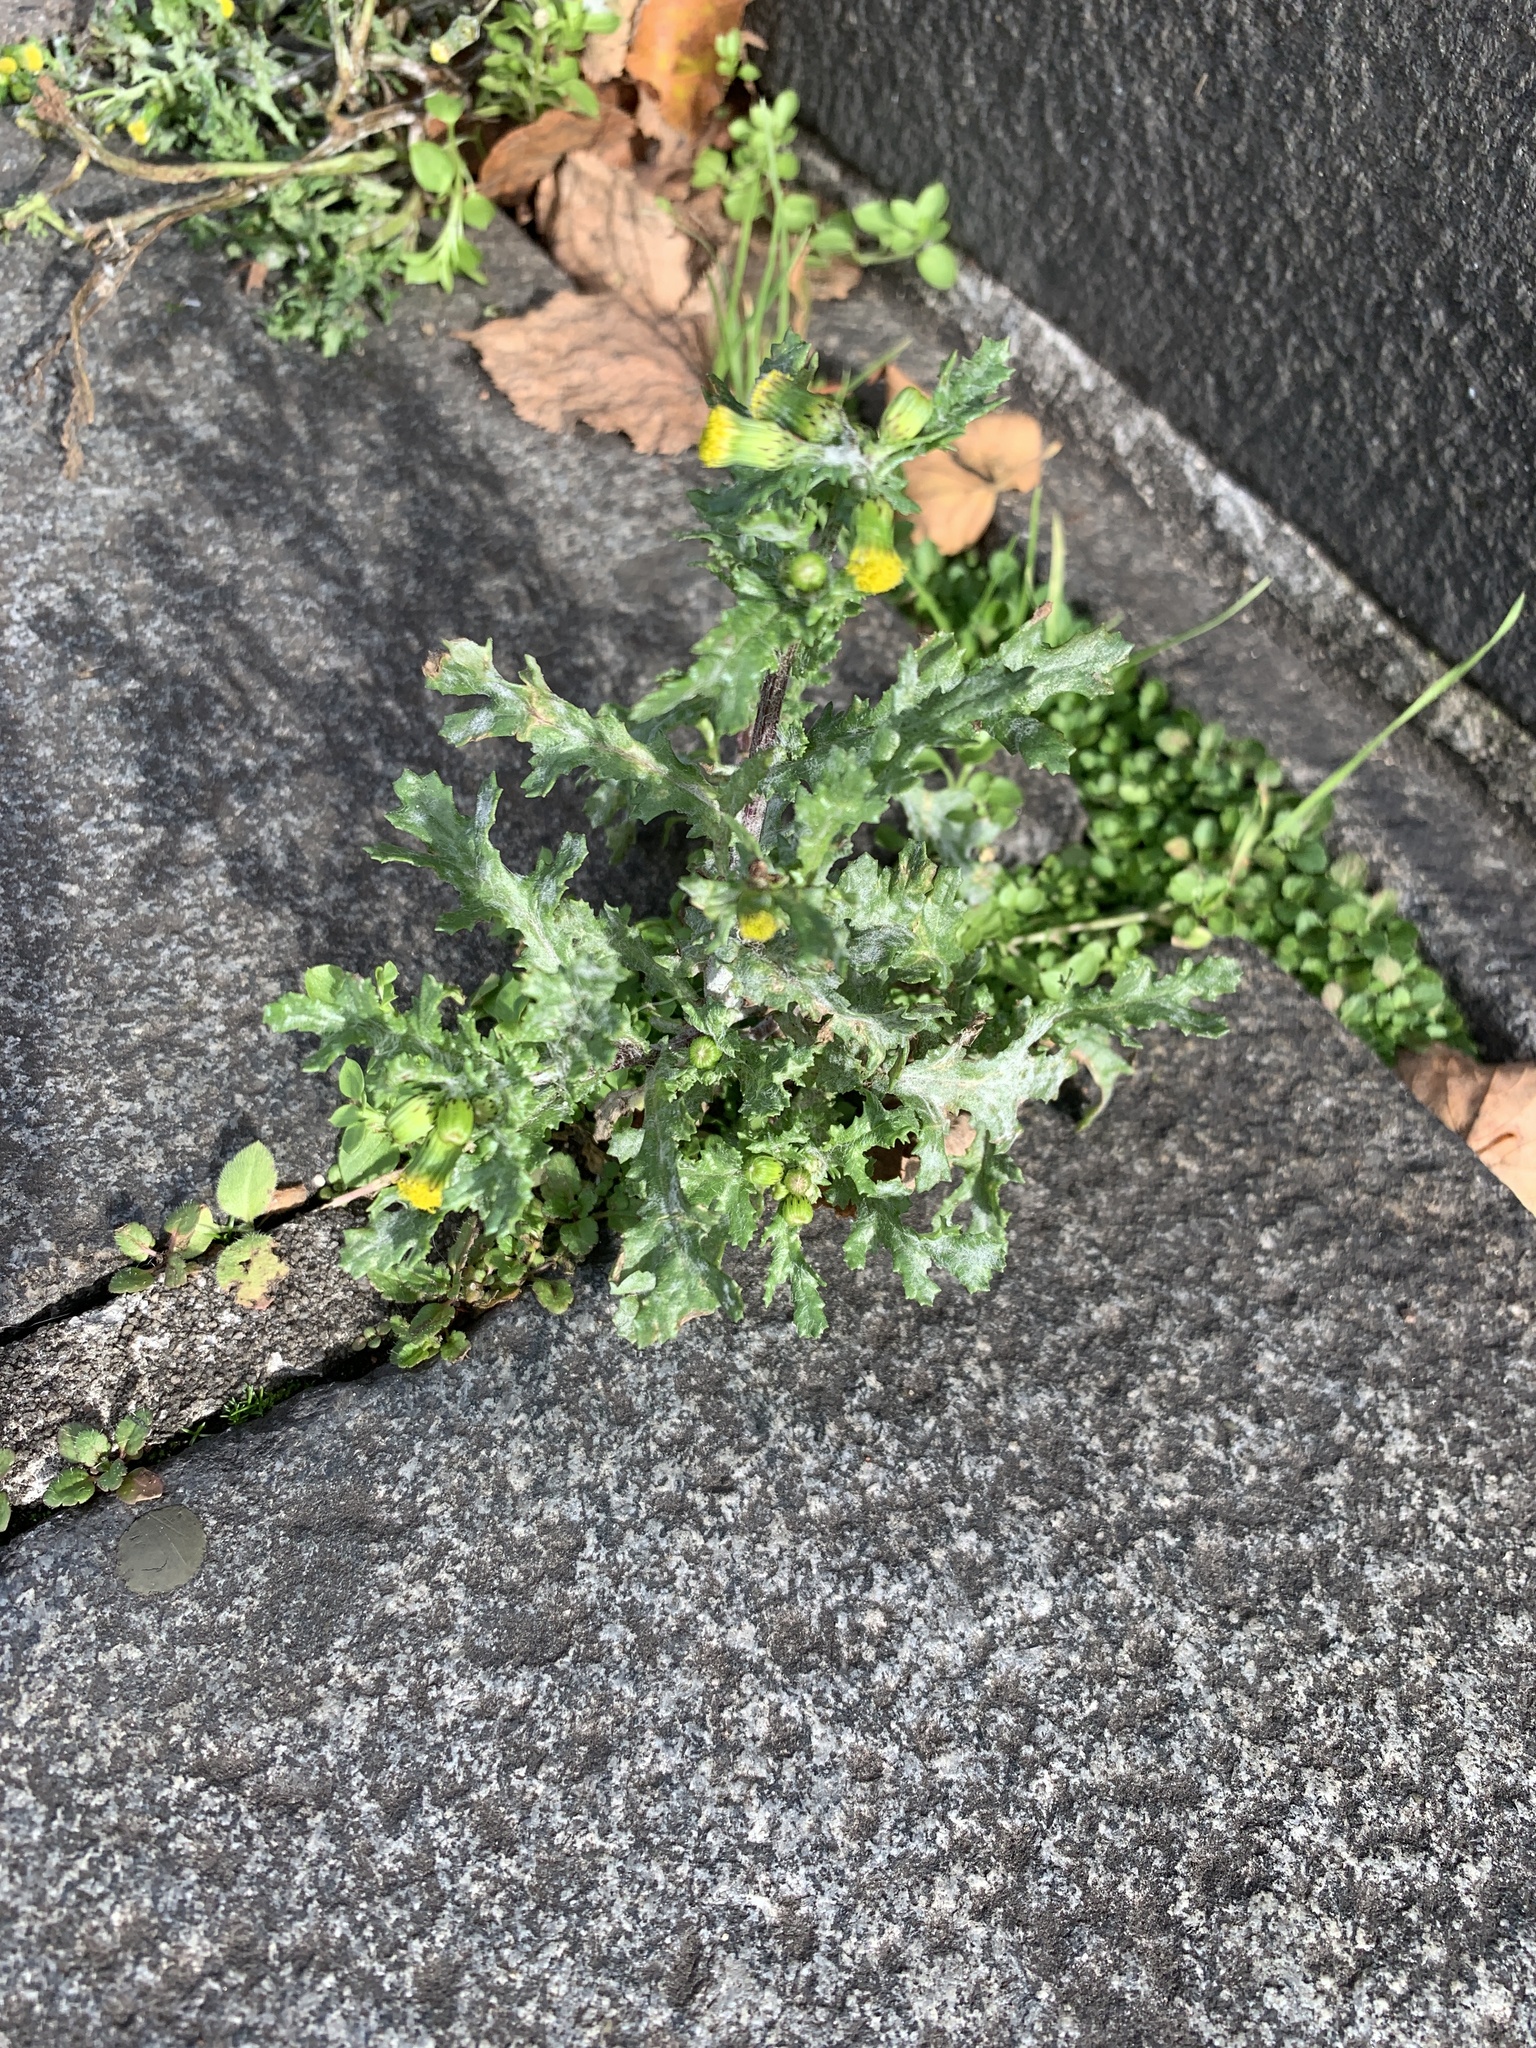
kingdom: Plantae
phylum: Tracheophyta
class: Magnoliopsida
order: Asterales
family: Asteraceae
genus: Senecio
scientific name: Senecio vulgaris
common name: Old-man-in-the-spring
